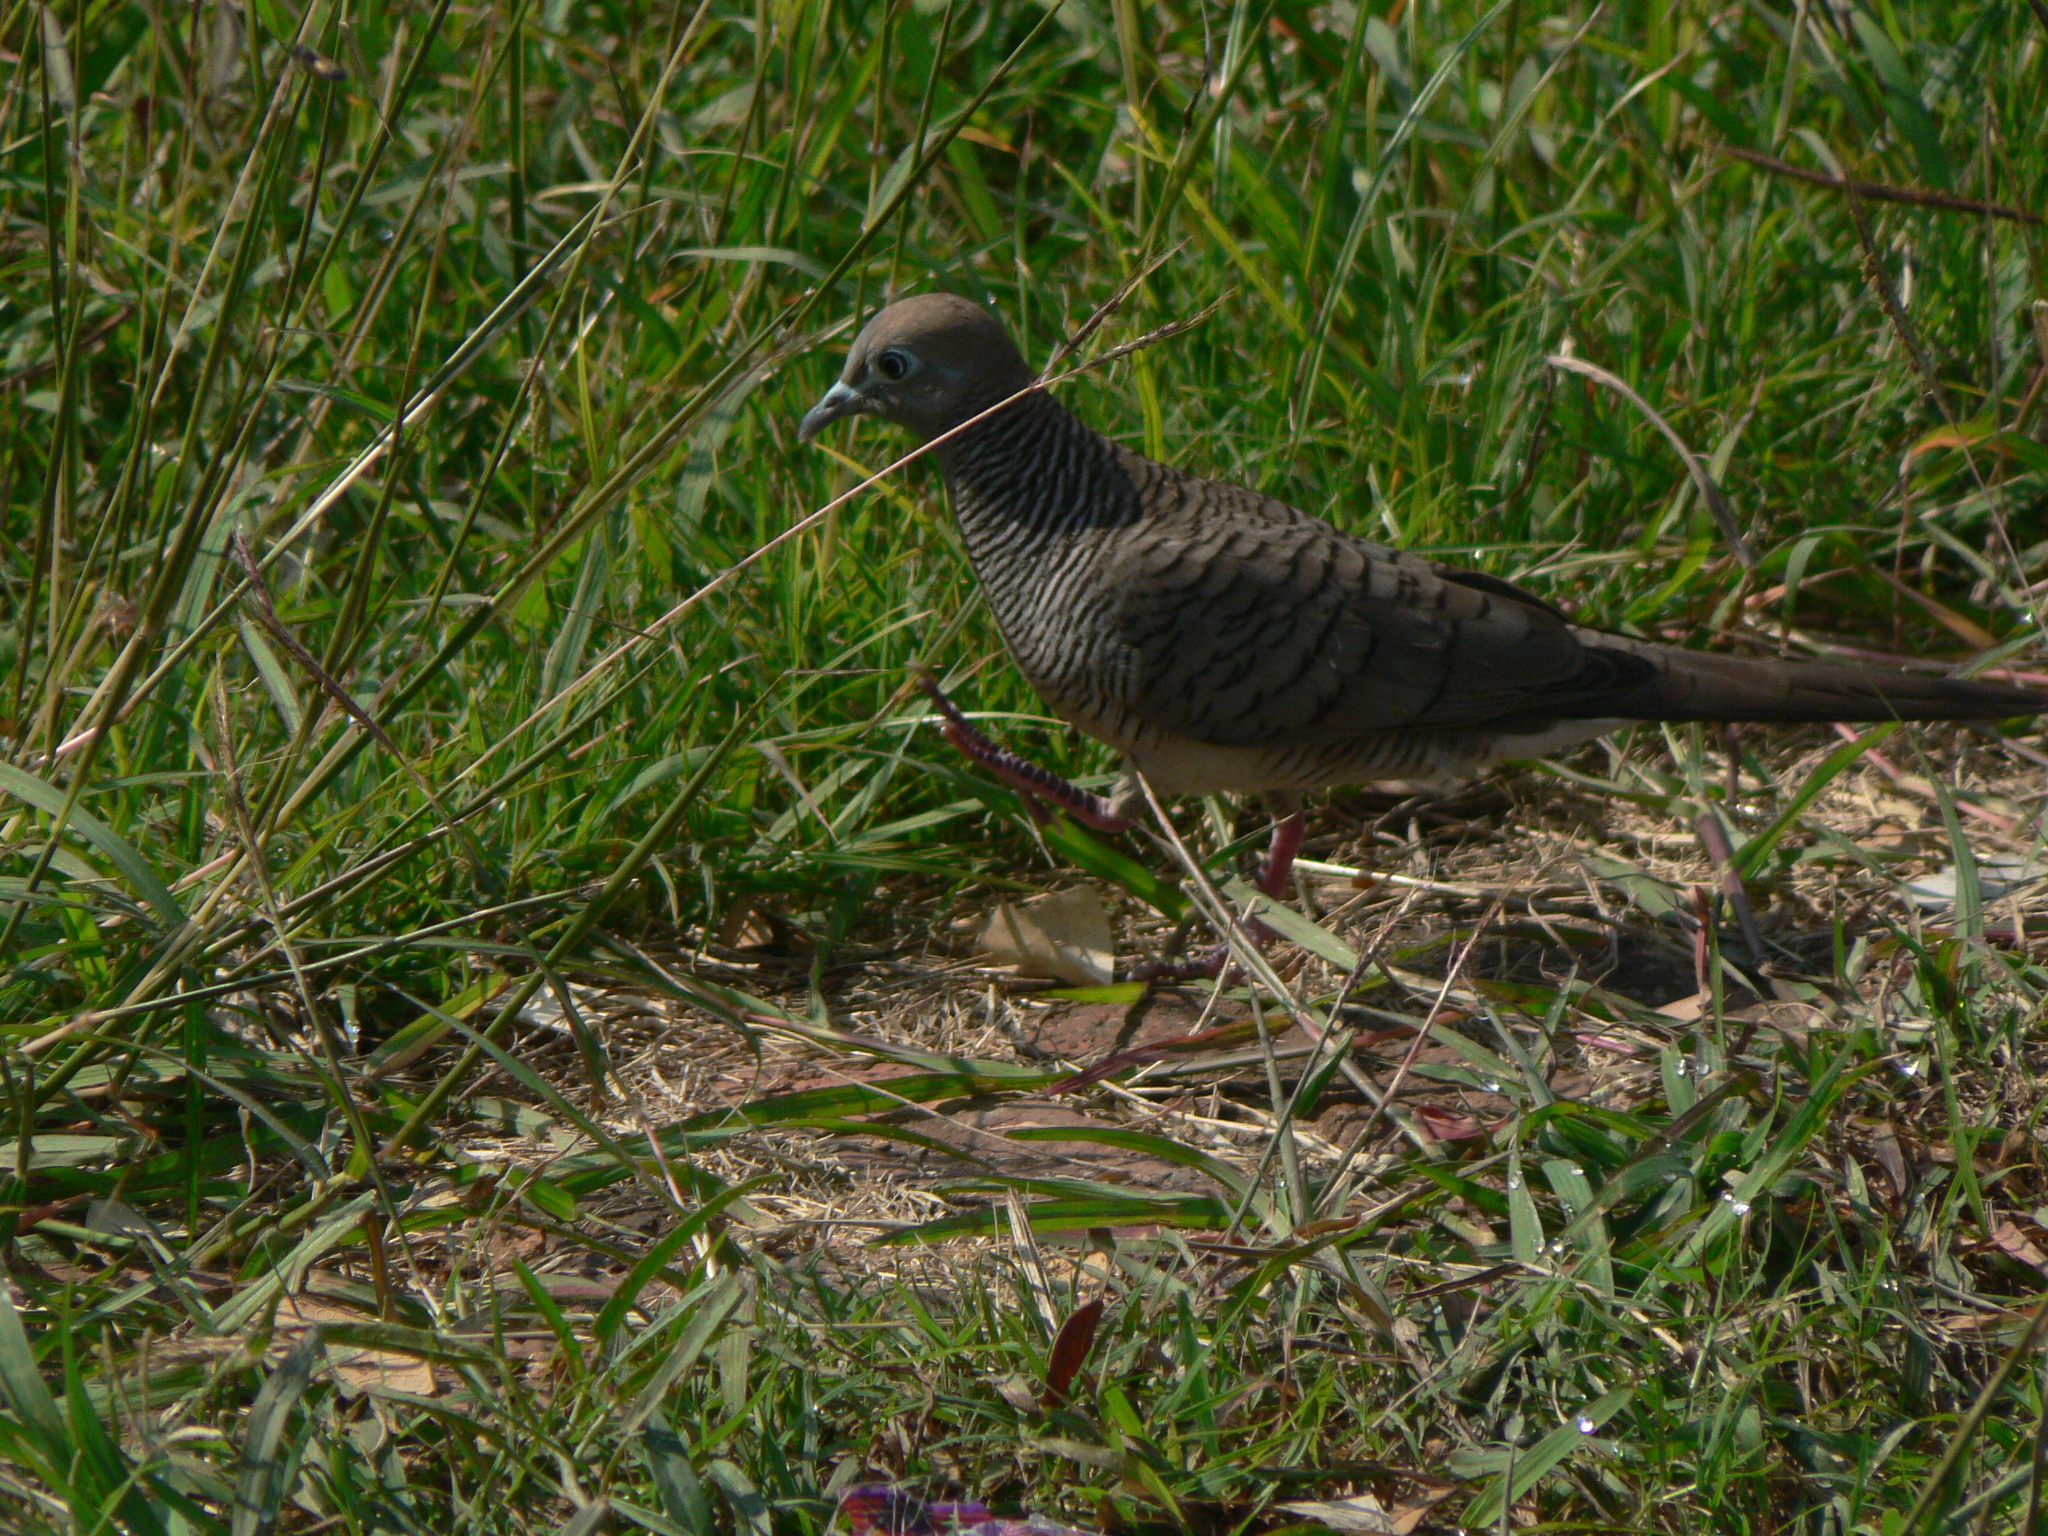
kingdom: Animalia
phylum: Chordata
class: Aves
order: Columbiformes
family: Columbidae
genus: Geopelia
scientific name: Geopelia striata
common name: Zebra dove
